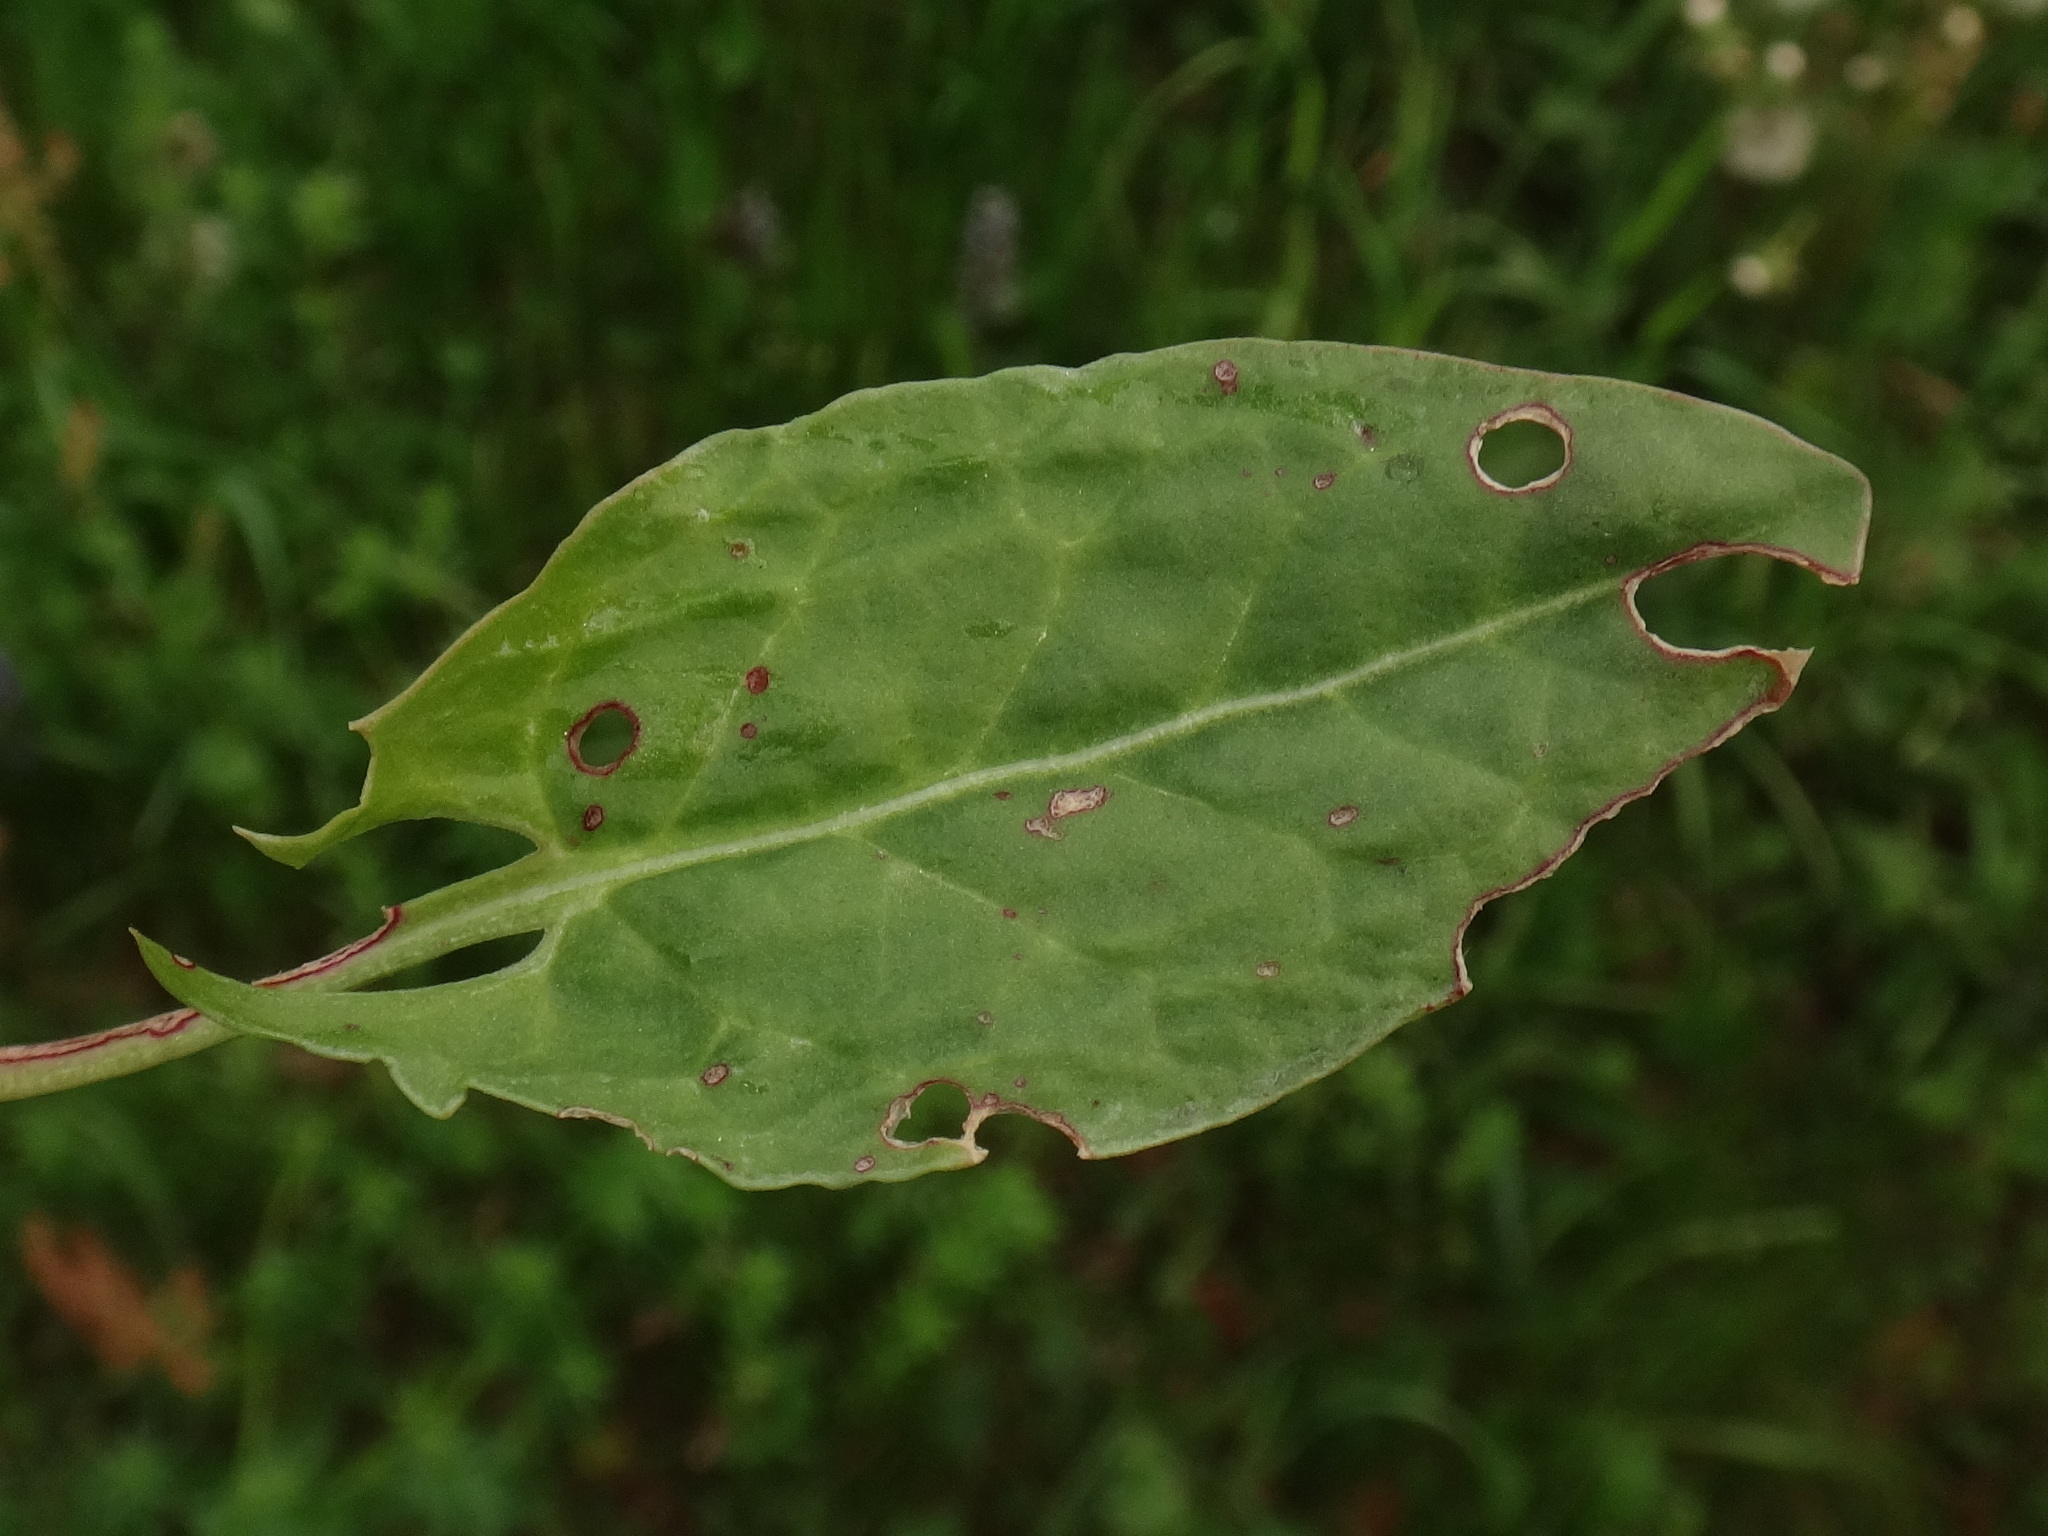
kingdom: Plantae
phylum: Tracheophyta
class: Magnoliopsida
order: Caryophyllales
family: Polygonaceae
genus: Rumex
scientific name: Rumex acetosa
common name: Garden sorrel
